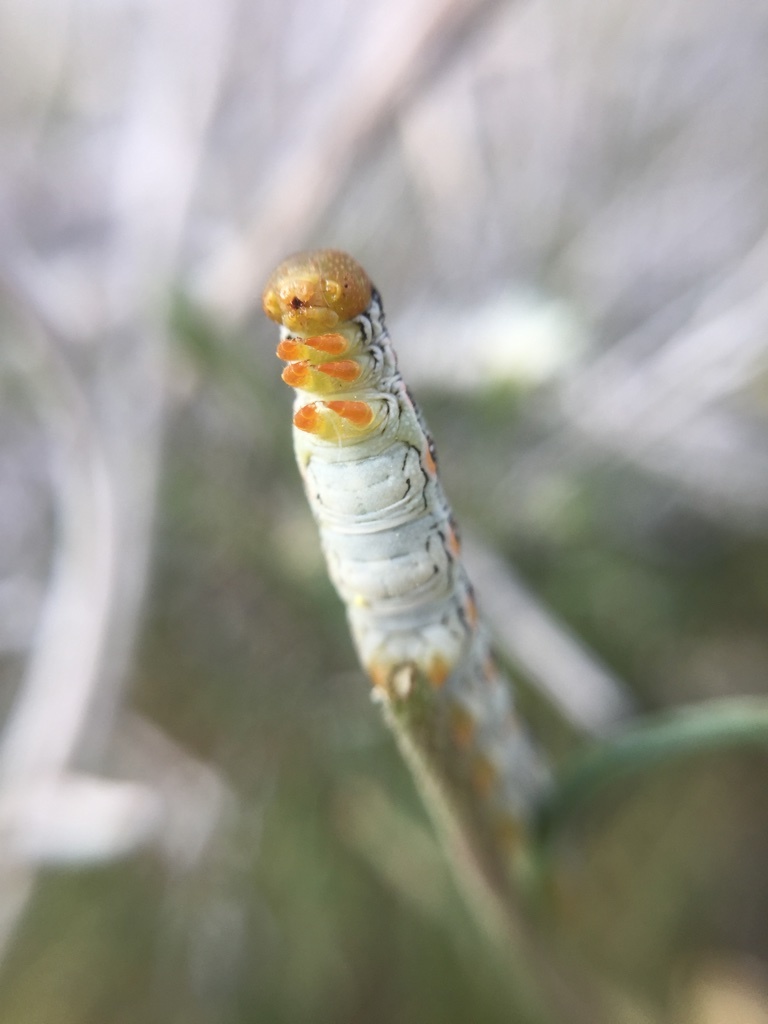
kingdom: Animalia
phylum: Arthropoda
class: Insecta
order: Lepidoptera
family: Sphingidae
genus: Hyles
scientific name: Hyles lineata
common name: White-lined sphinx
